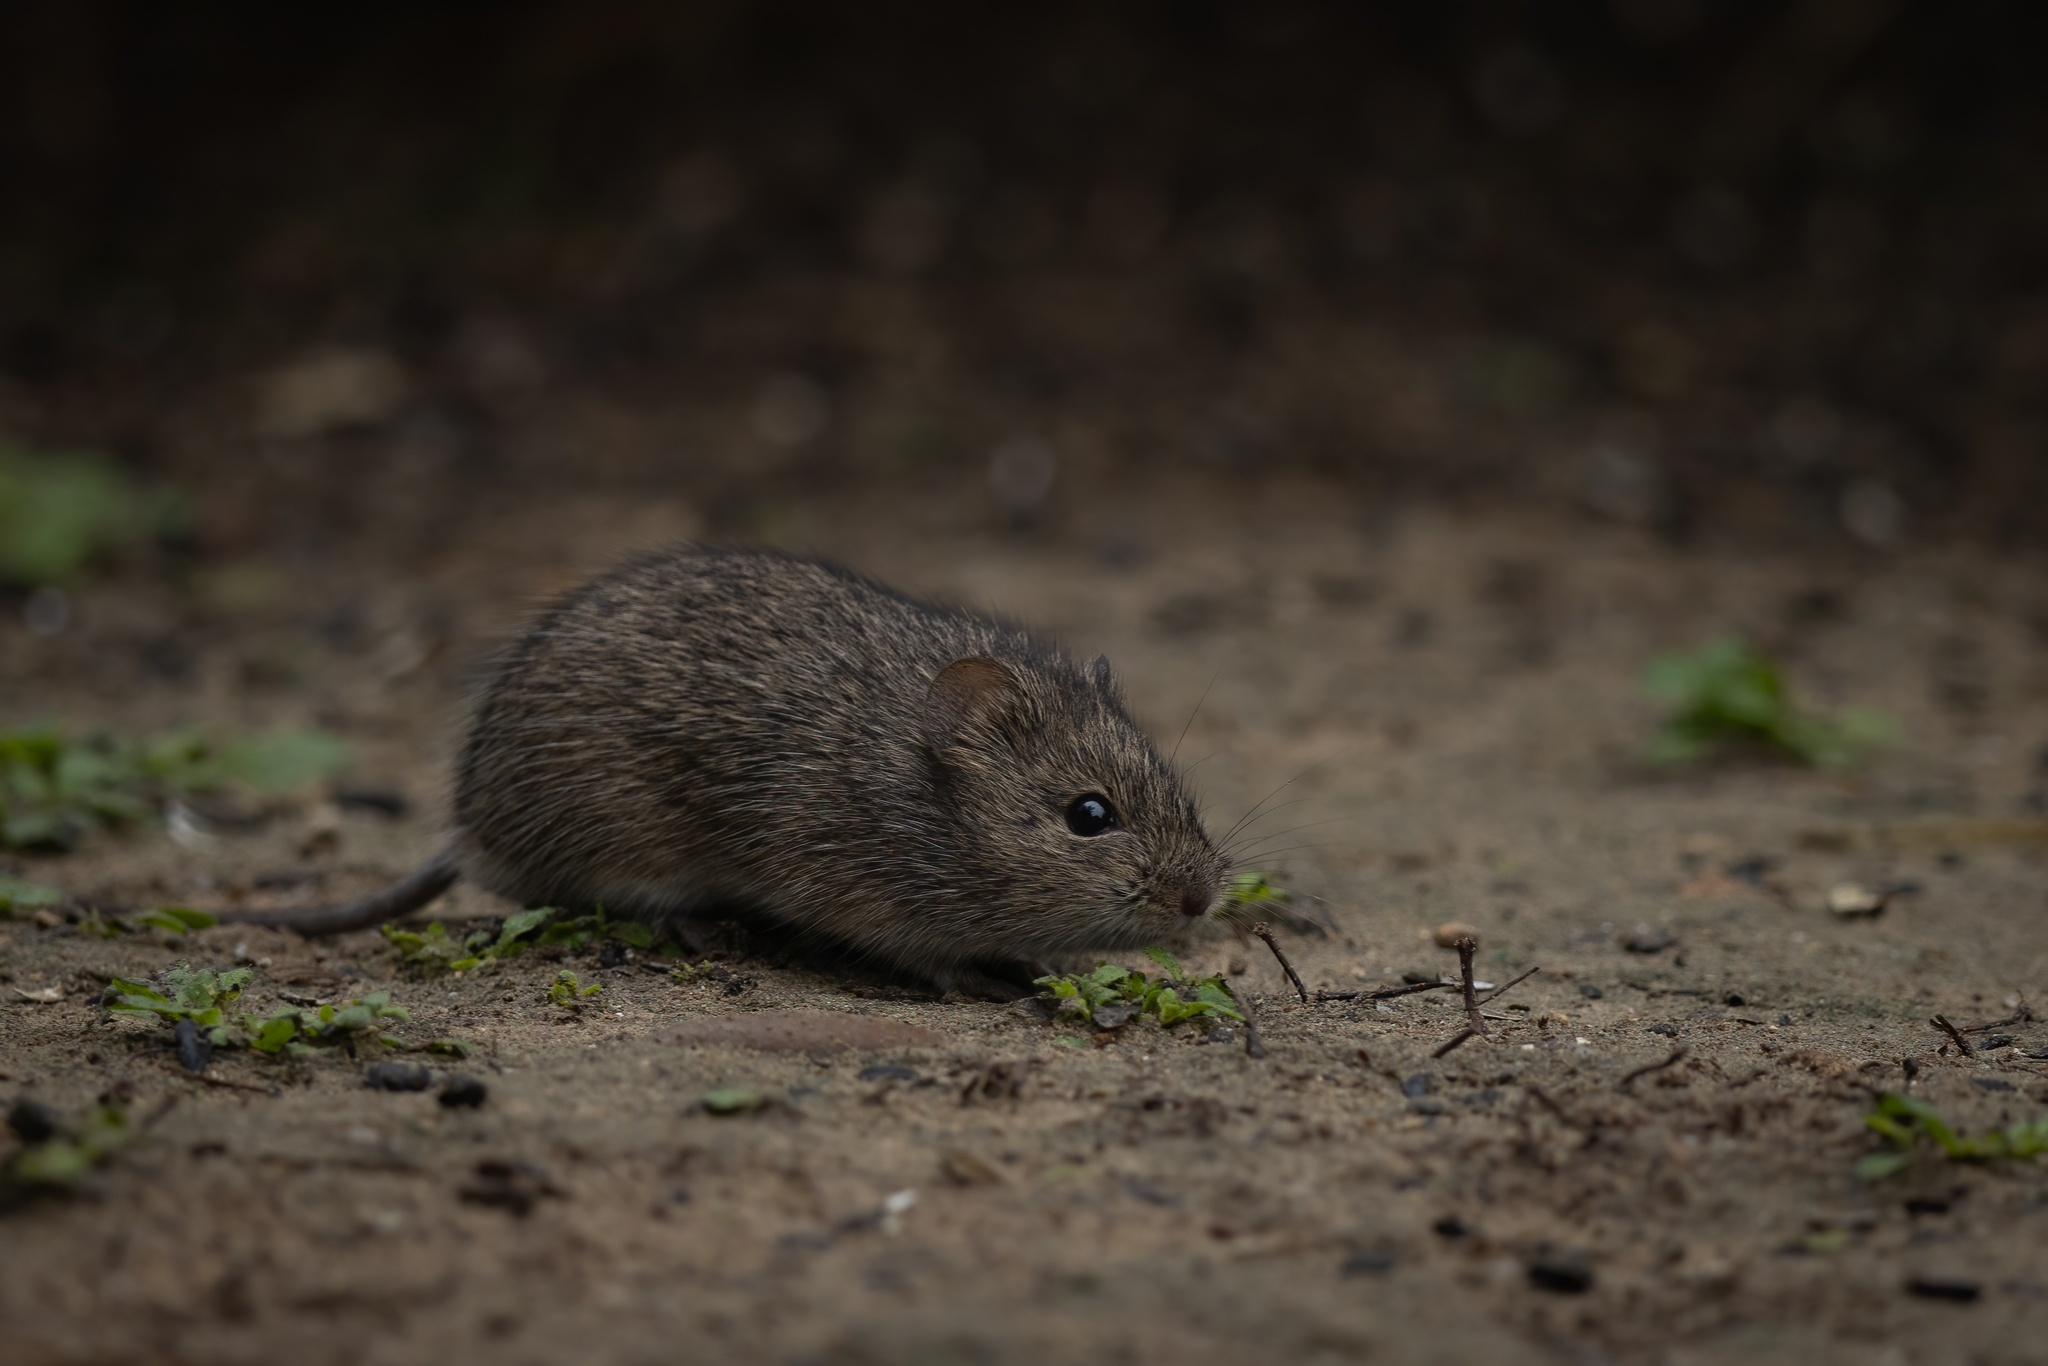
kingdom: Animalia
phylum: Chordata
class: Mammalia
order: Rodentia
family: Cricetidae
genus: Sigmodon
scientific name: Sigmodon hispidus
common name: Hispid cotton rat
